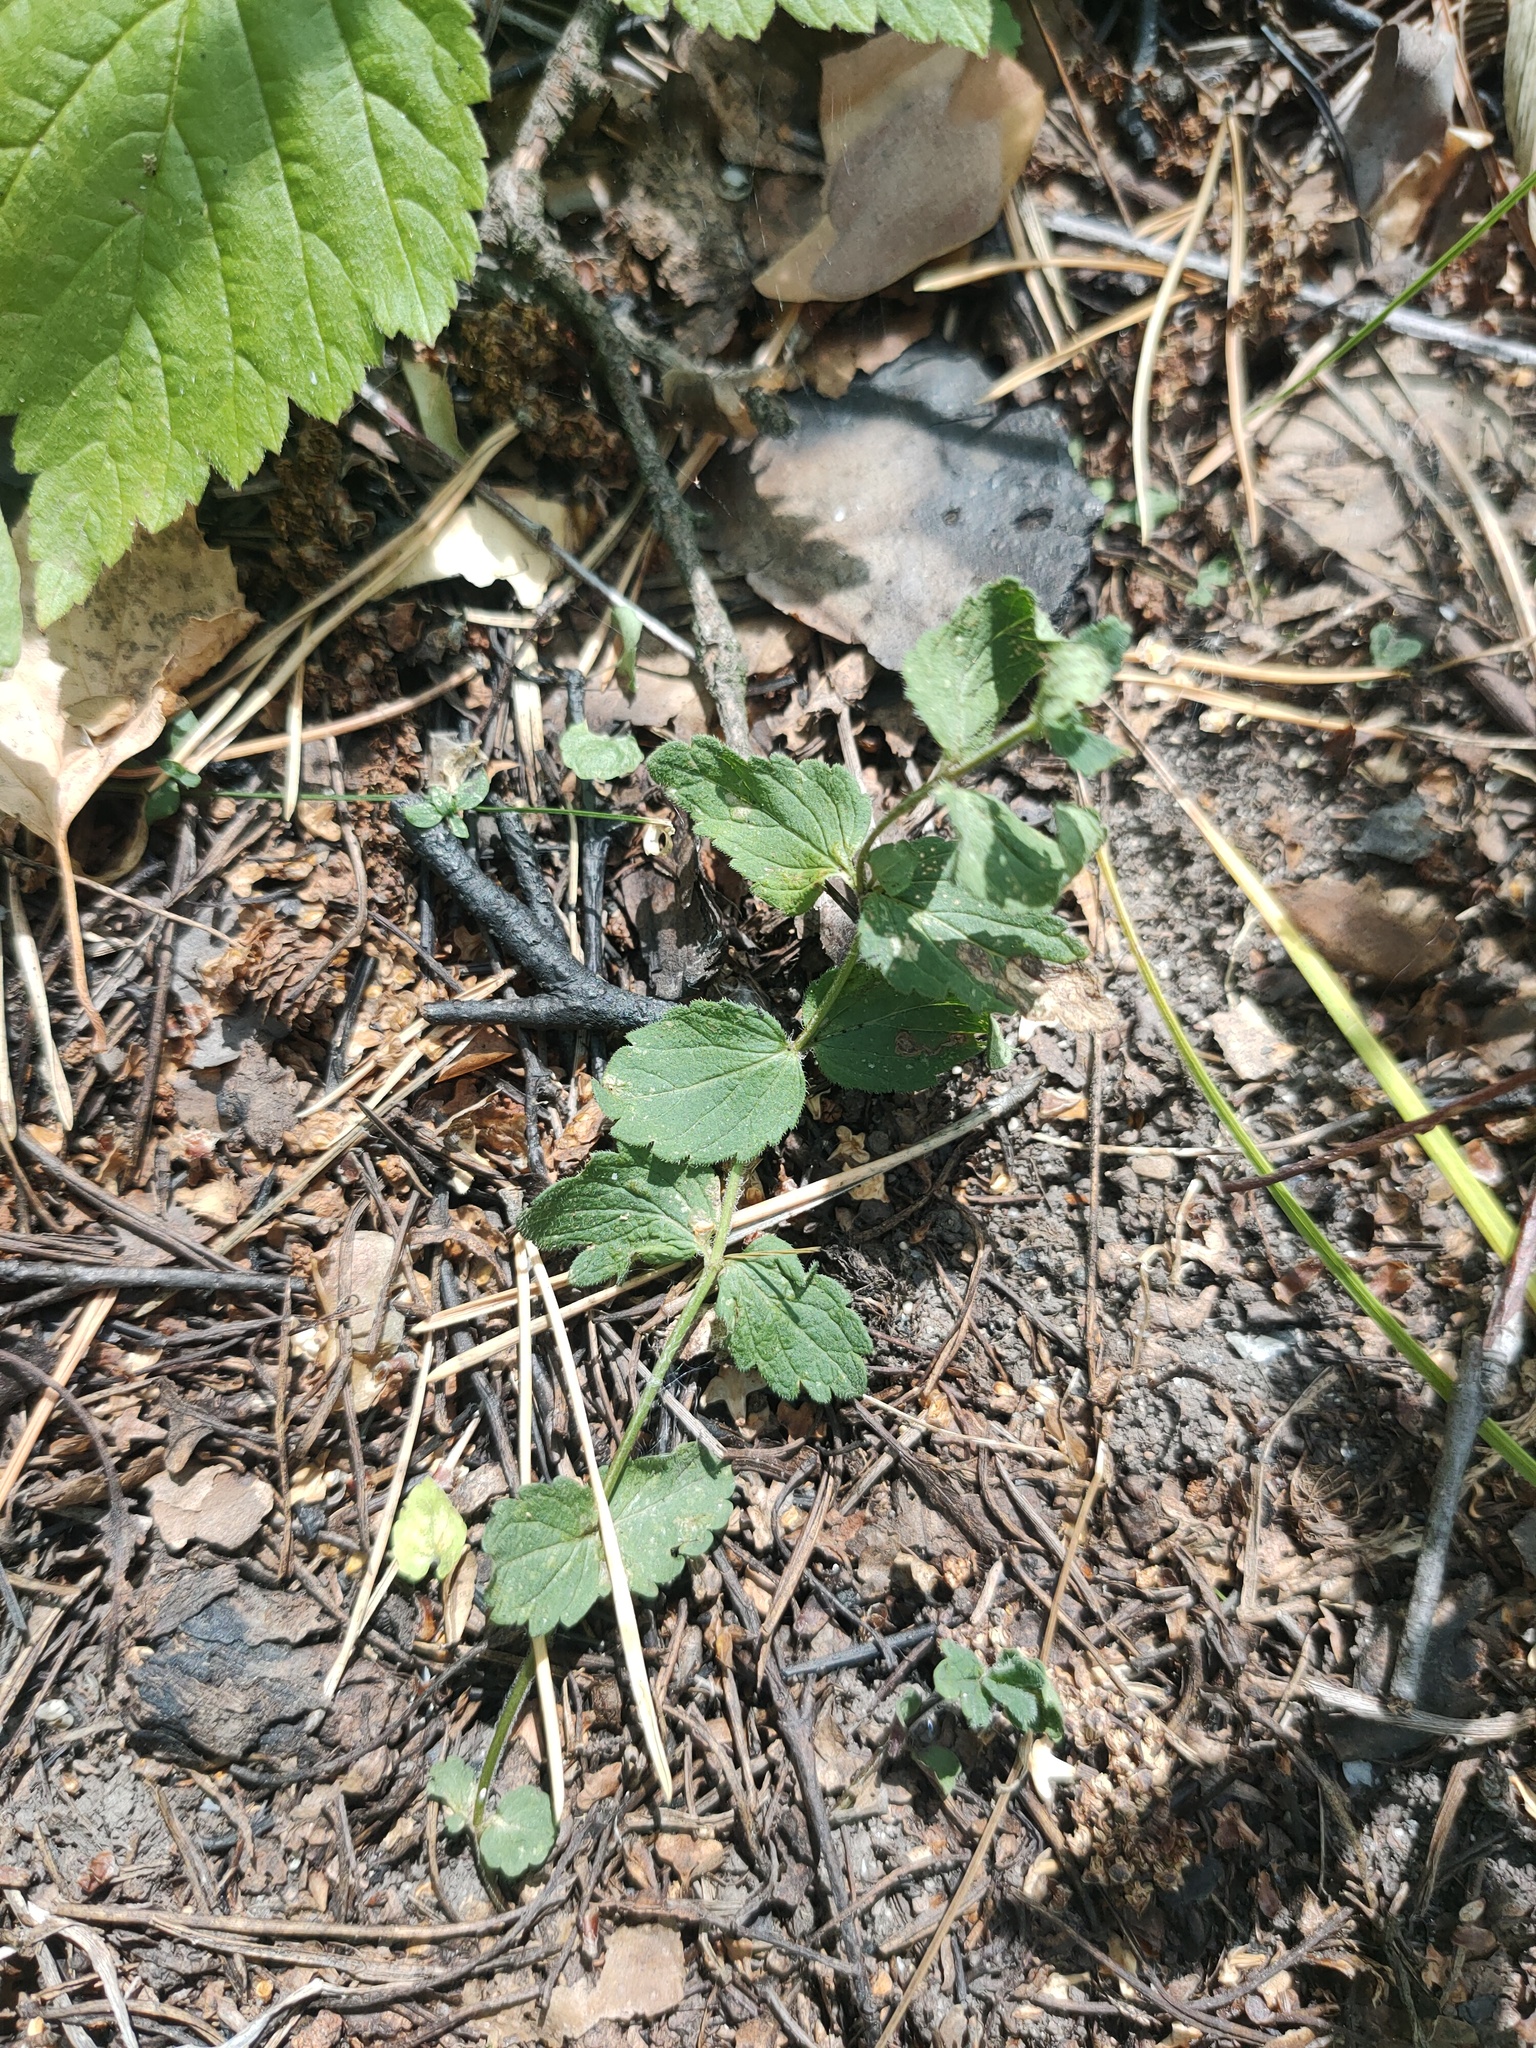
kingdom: Plantae
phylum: Tracheophyta
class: Magnoliopsida
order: Lamiales
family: Plantaginaceae
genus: Veronica
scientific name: Veronica chamaedrys
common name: Germander speedwell
